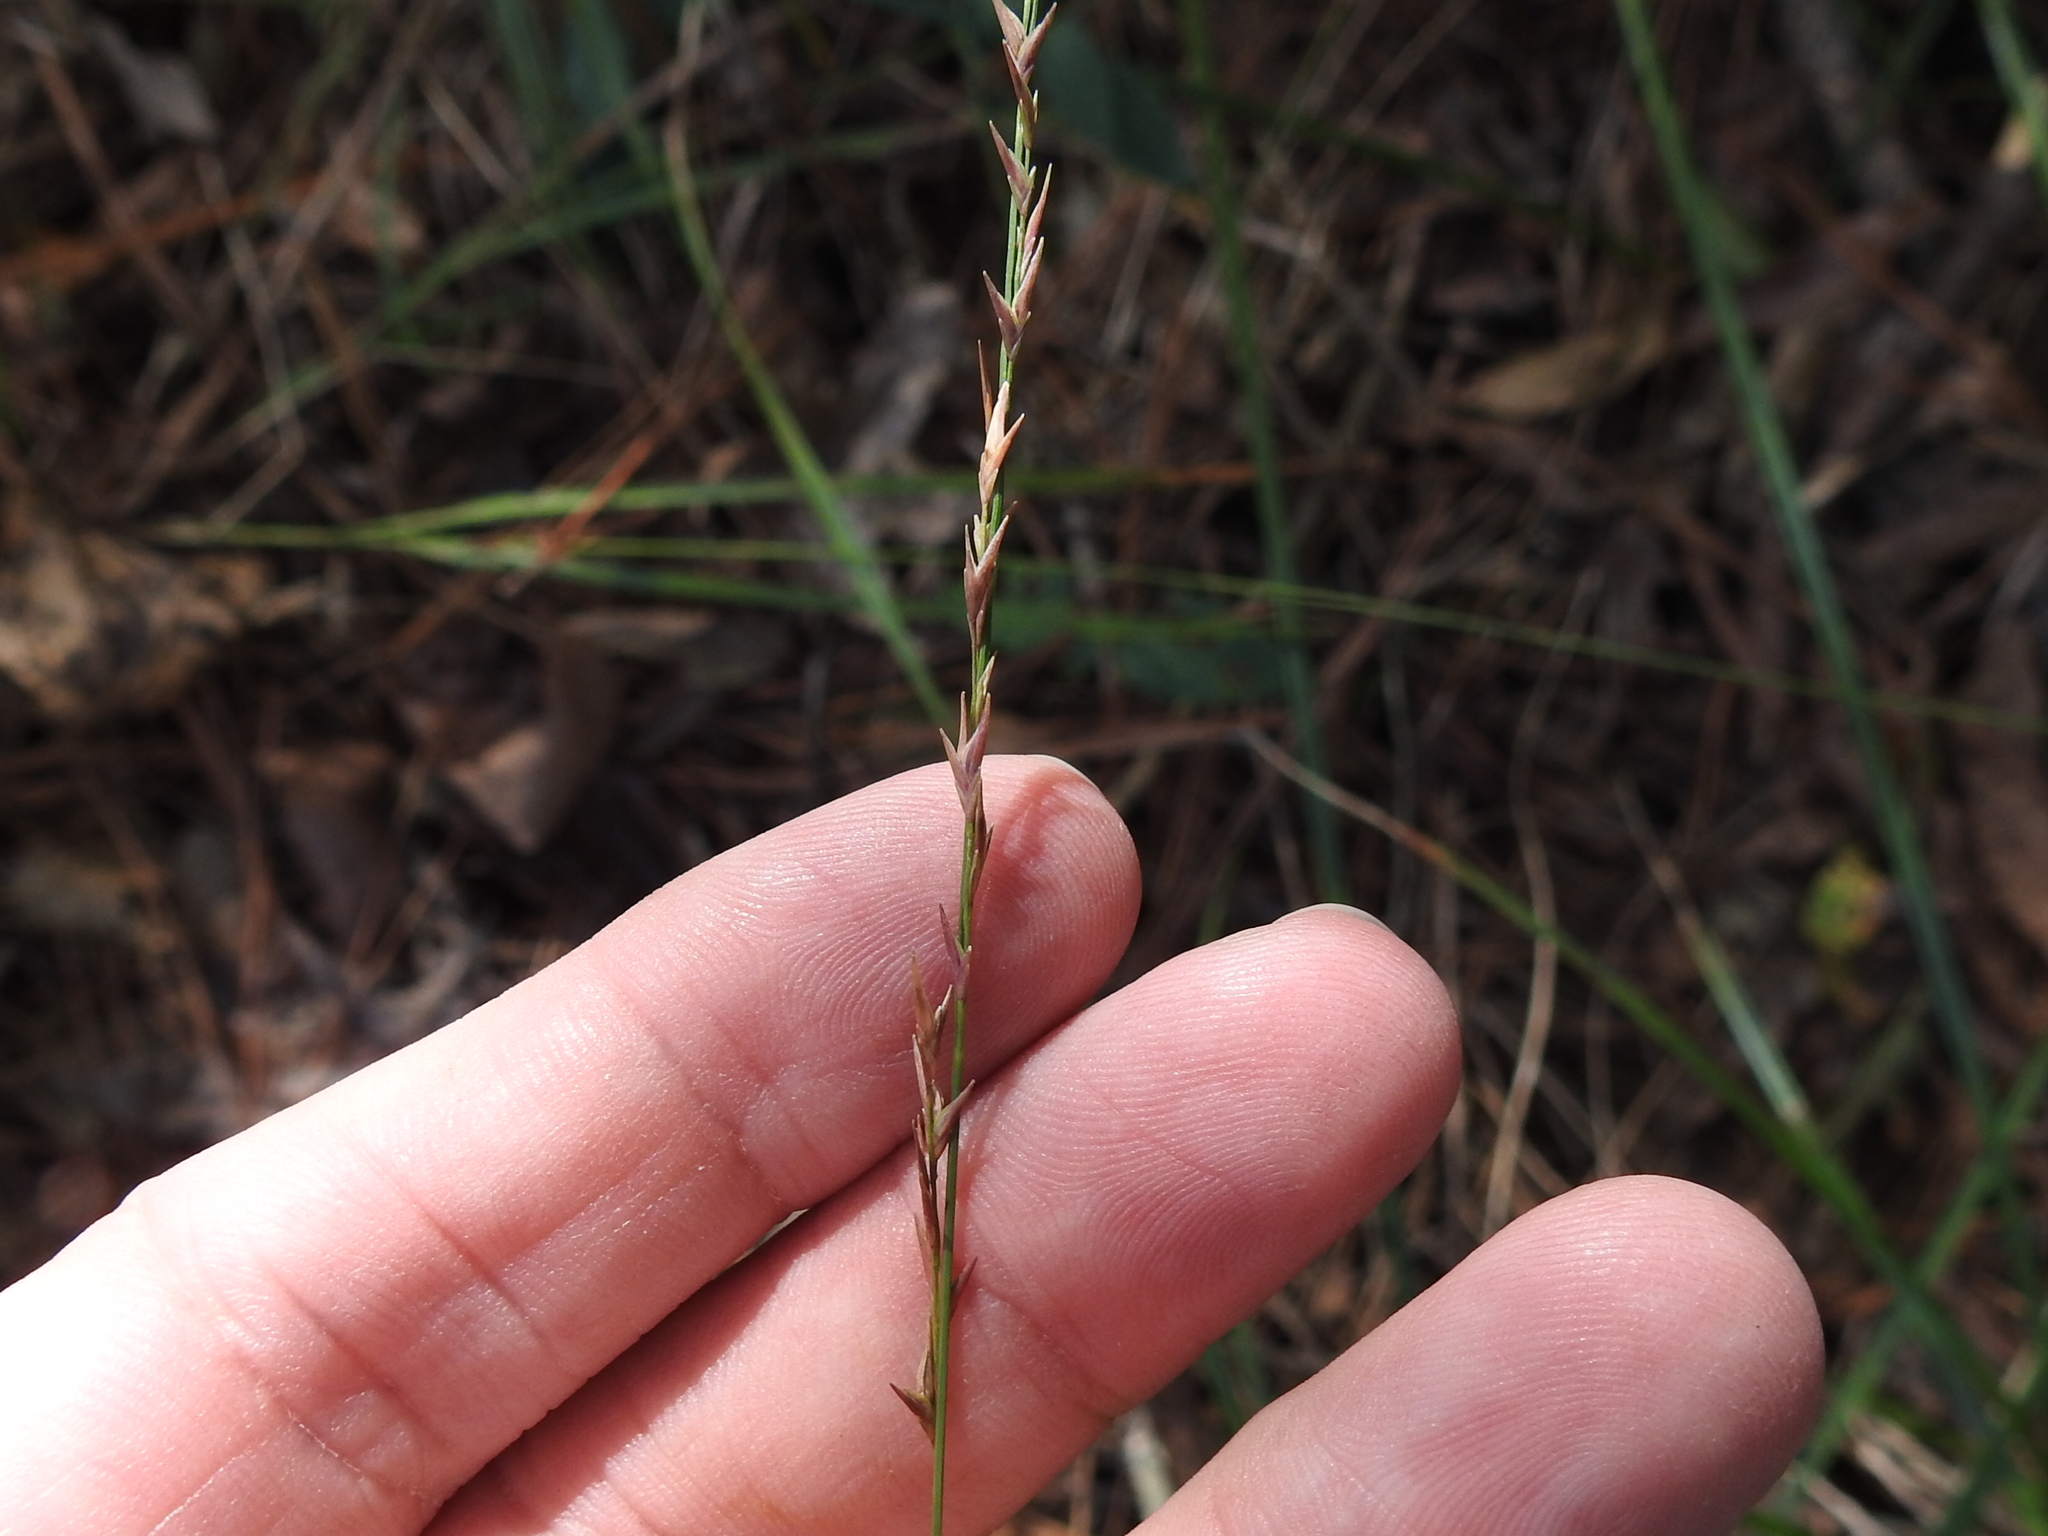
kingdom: Plantae
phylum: Tracheophyta
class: Liliopsida
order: Poales
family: Poaceae
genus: Chasmanthium
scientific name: Chasmanthium laxum
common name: Slender chasmanthium
